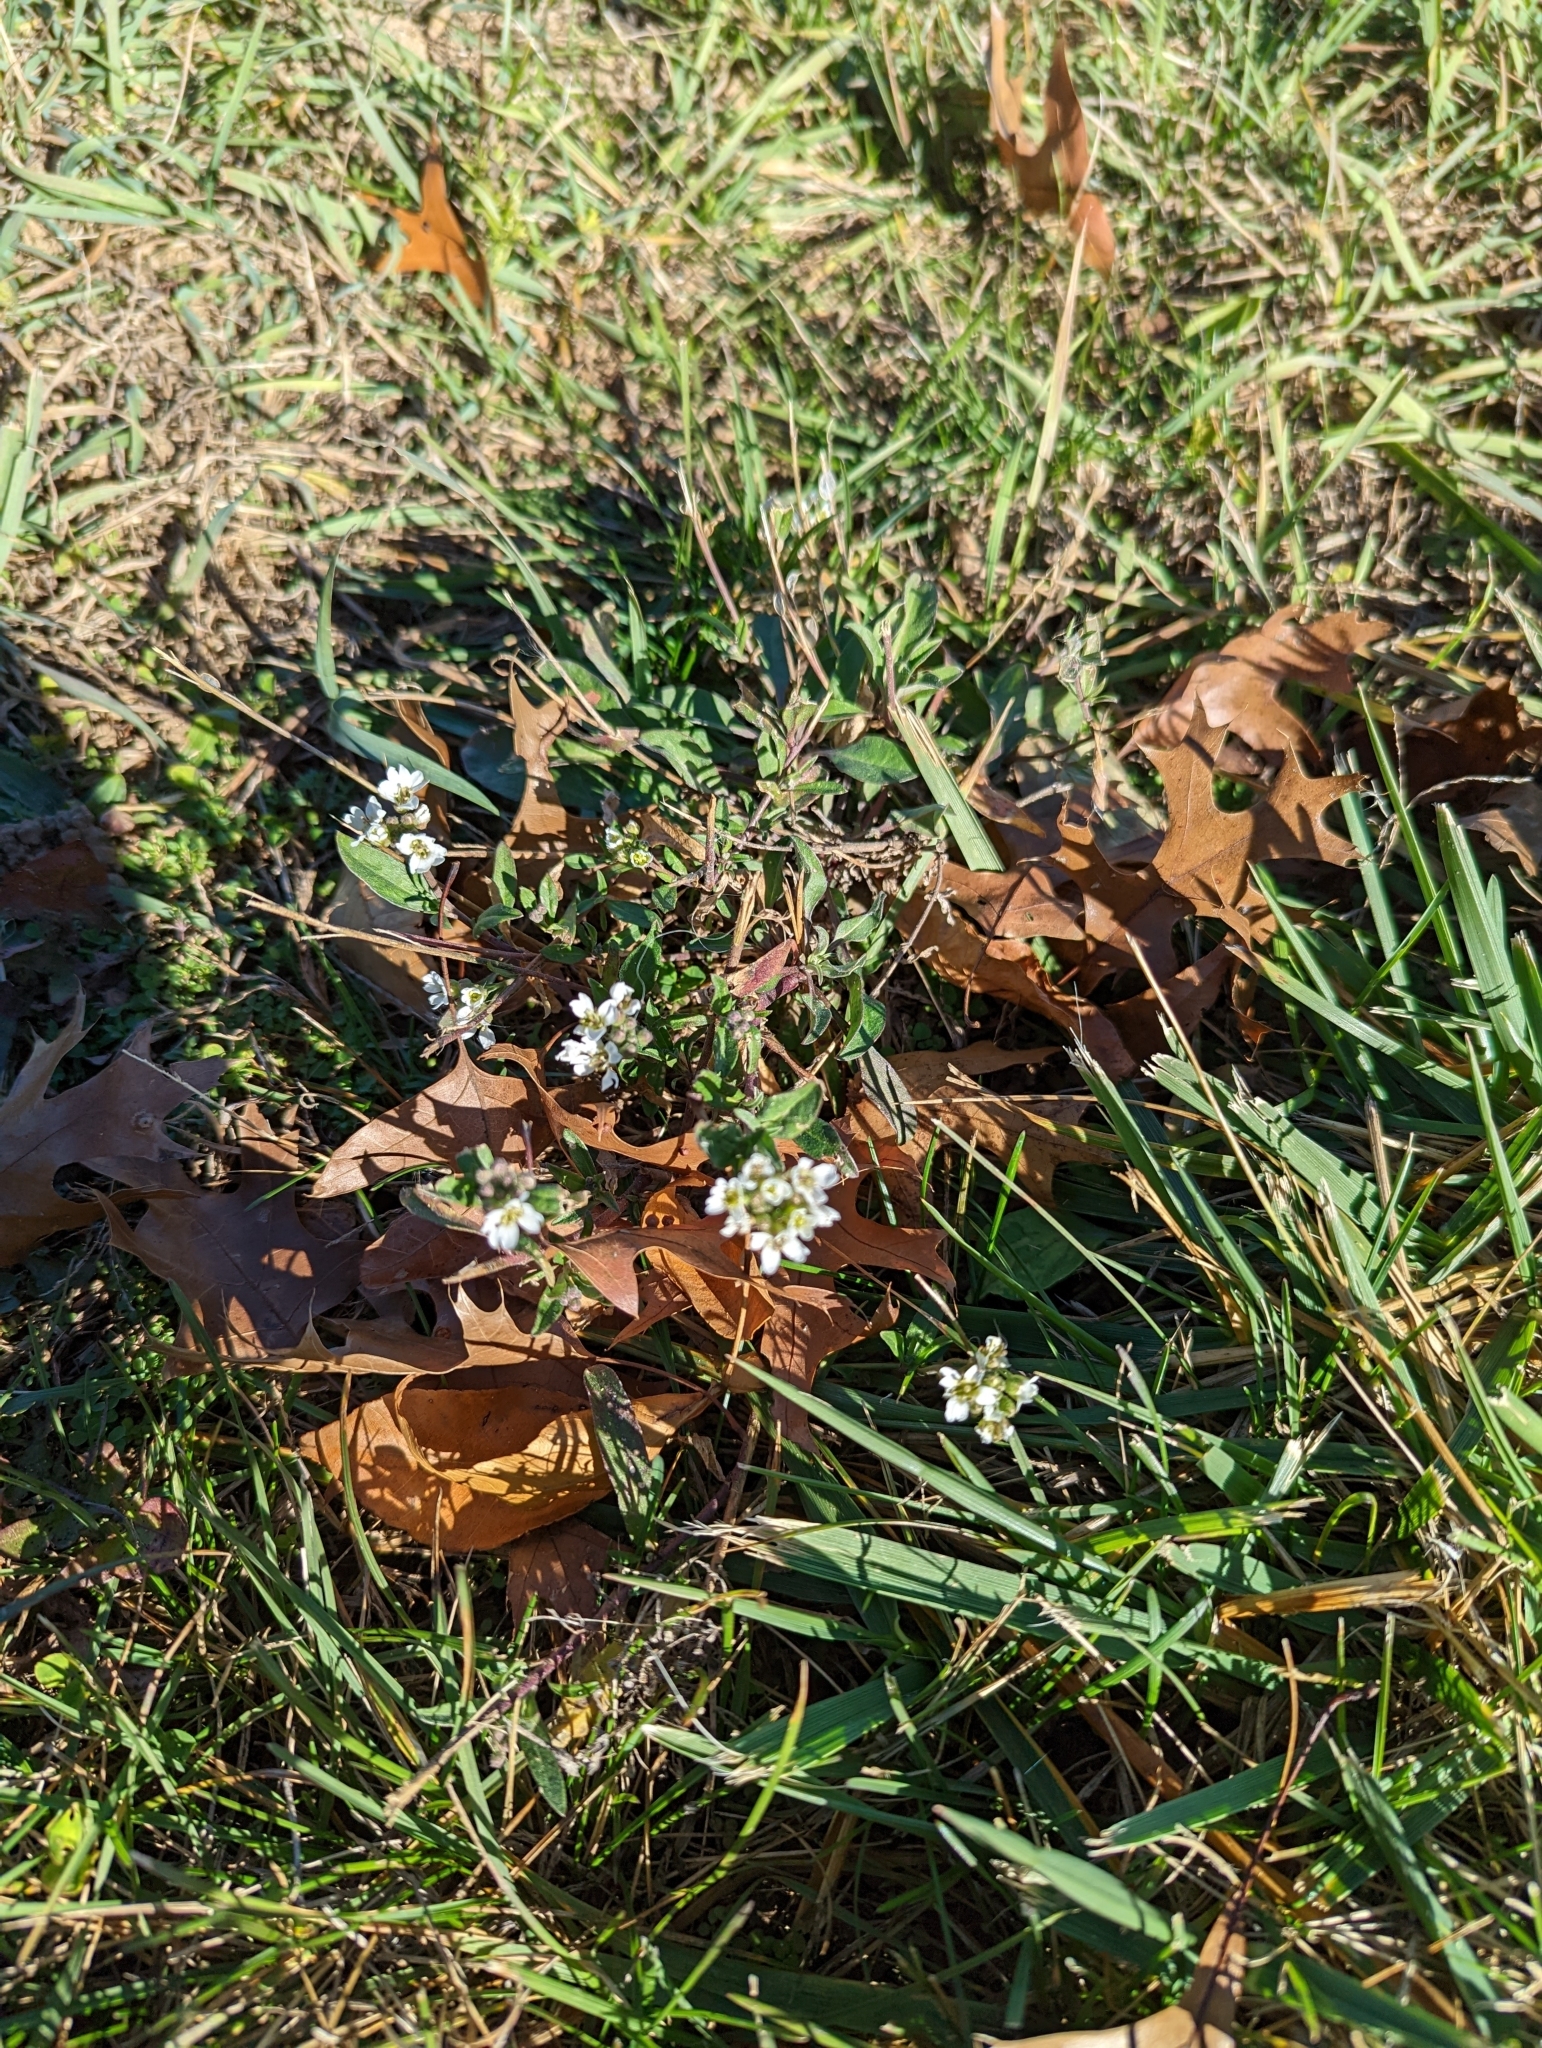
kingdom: Plantae
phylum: Tracheophyta
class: Magnoliopsida
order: Brassicales
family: Brassicaceae
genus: Berteroa
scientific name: Berteroa incana
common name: Hoary alison
